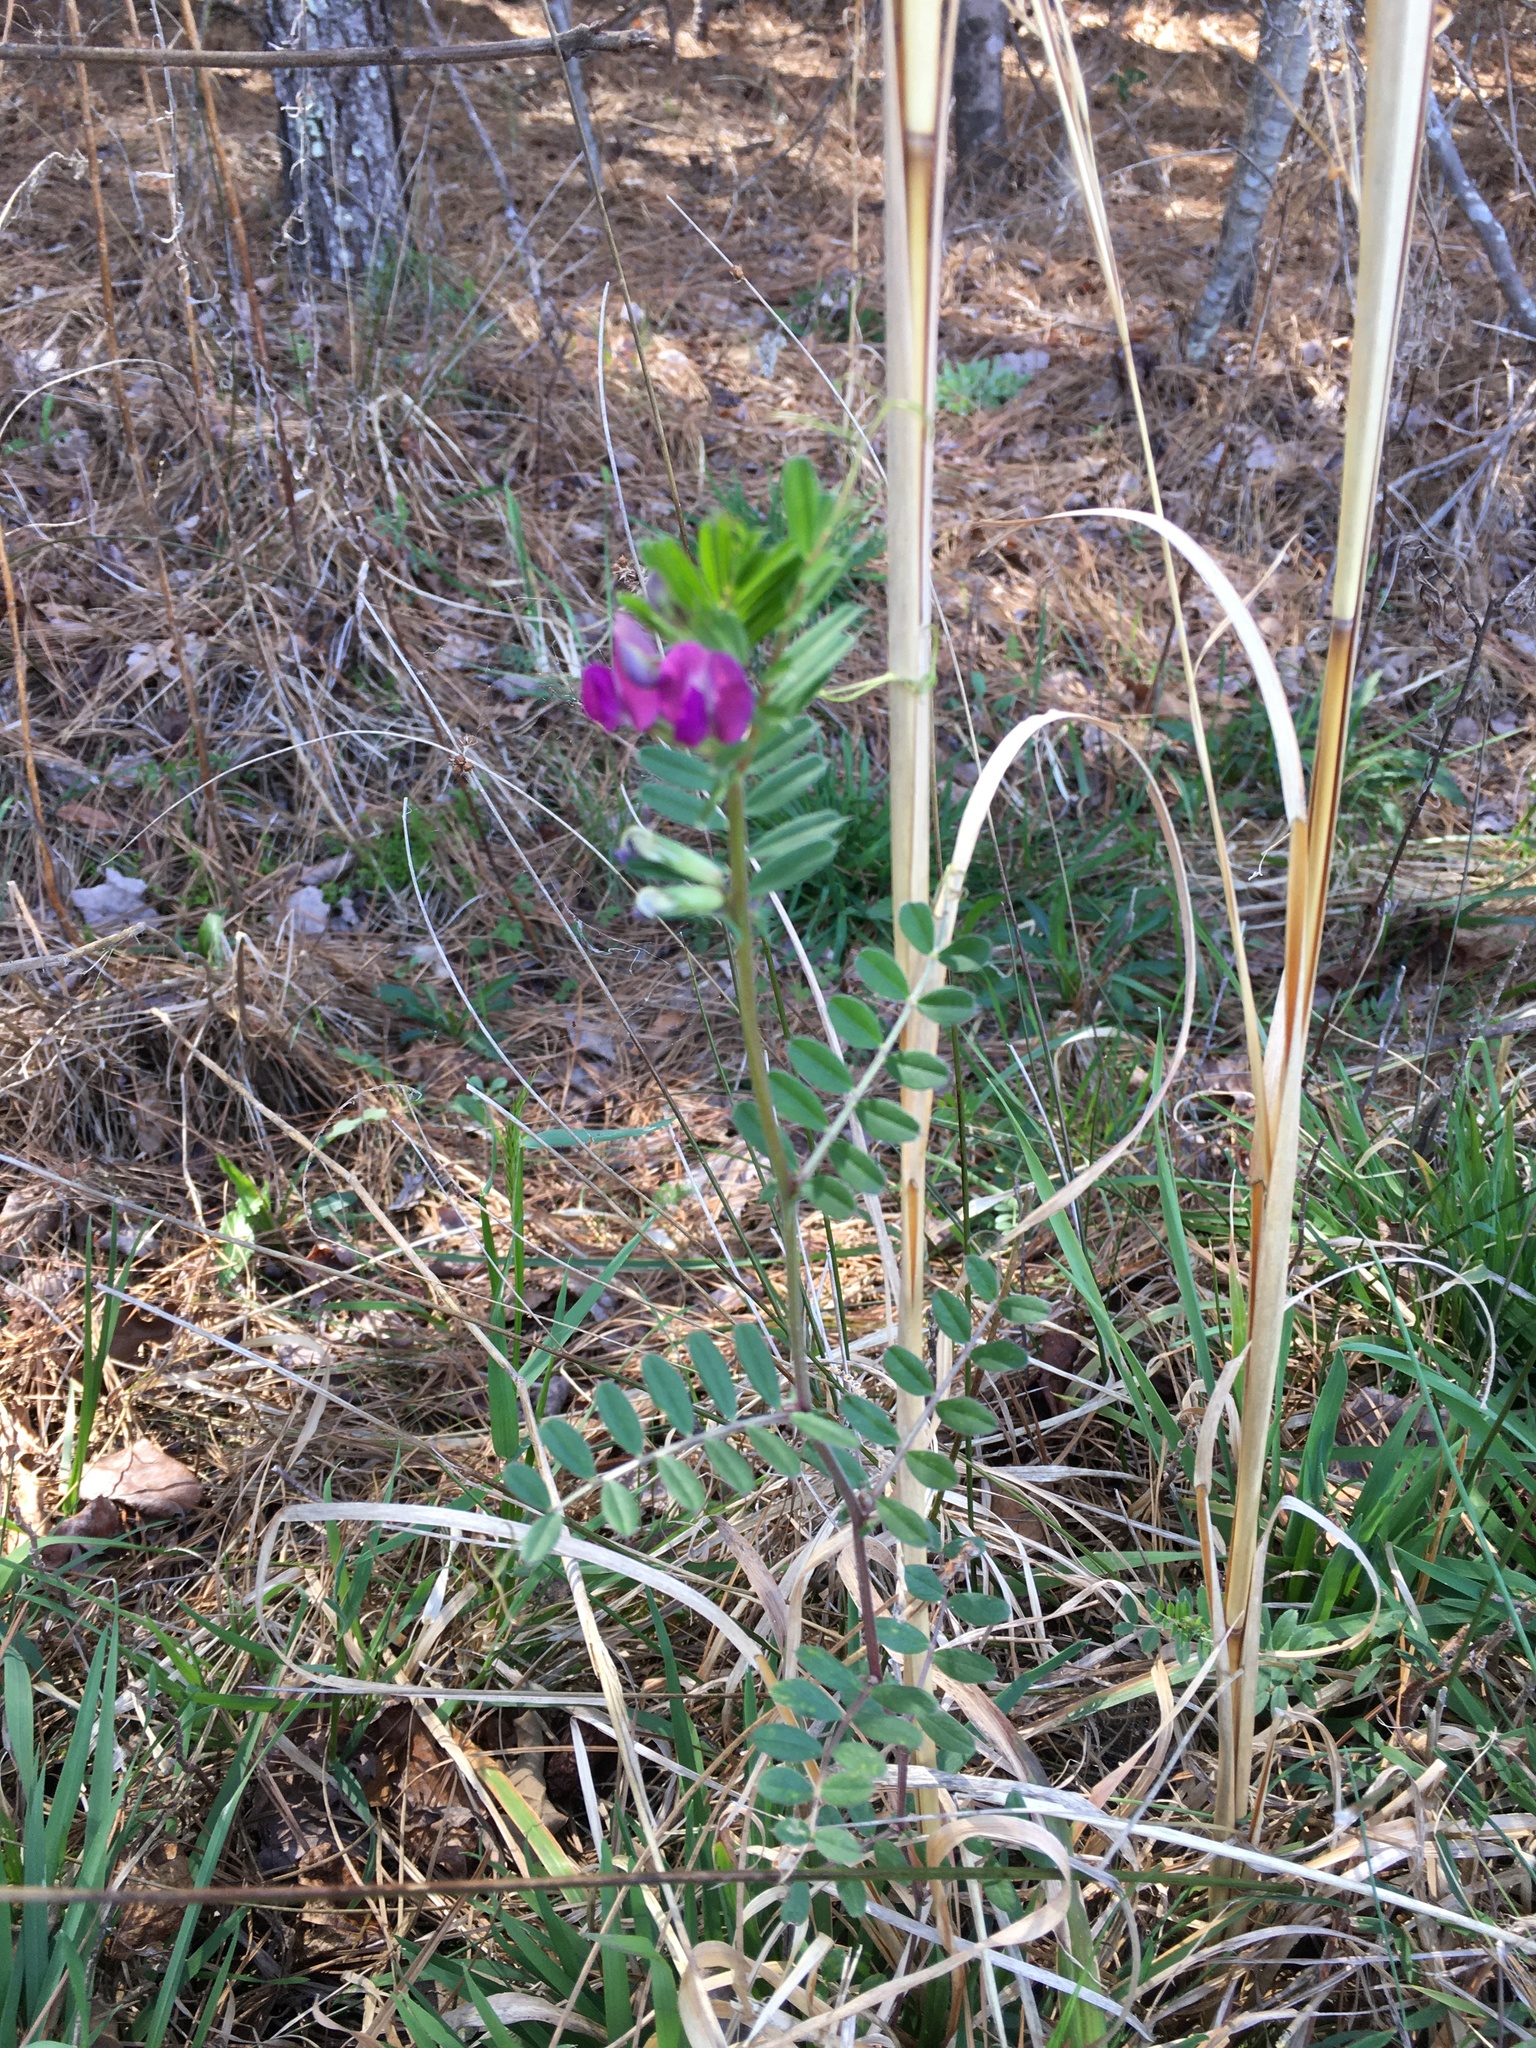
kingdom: Plantae
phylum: Tracheophyta
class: Magnoliopsida
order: Fabales
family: Fabaceae
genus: Vicia
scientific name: Vicia sativa
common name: Garden vetch
